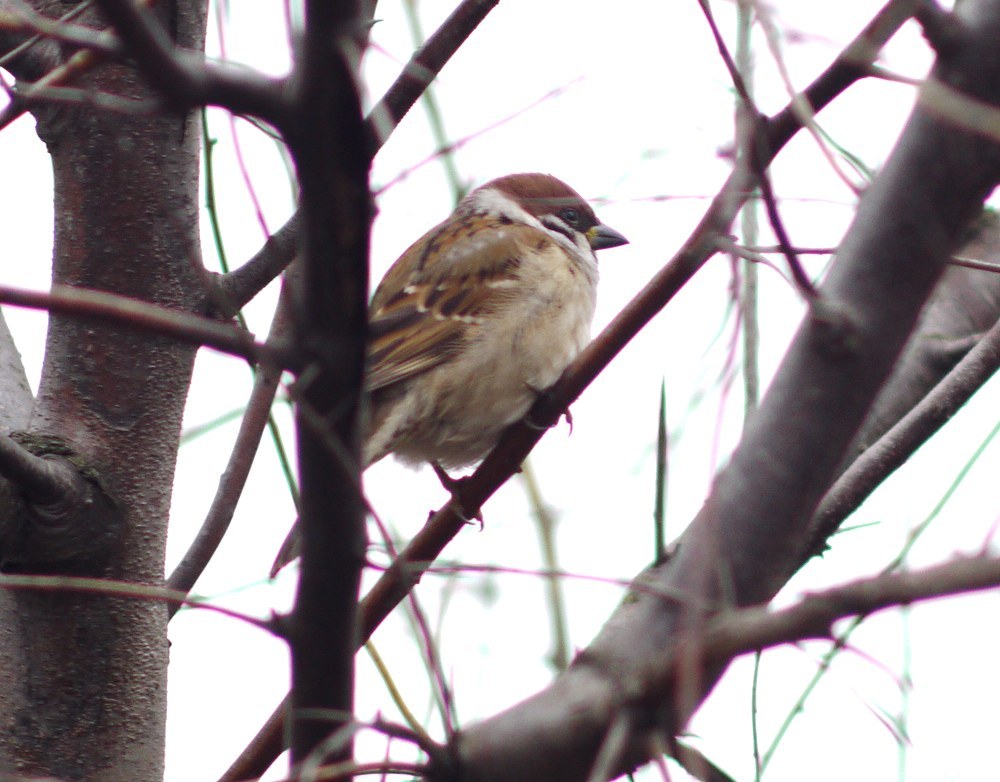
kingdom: Animalia
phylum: Chordata
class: Aves
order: Passeriformes
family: Passeridae
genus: Passer
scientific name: Passer montanus
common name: Eurasian tree sparrow
